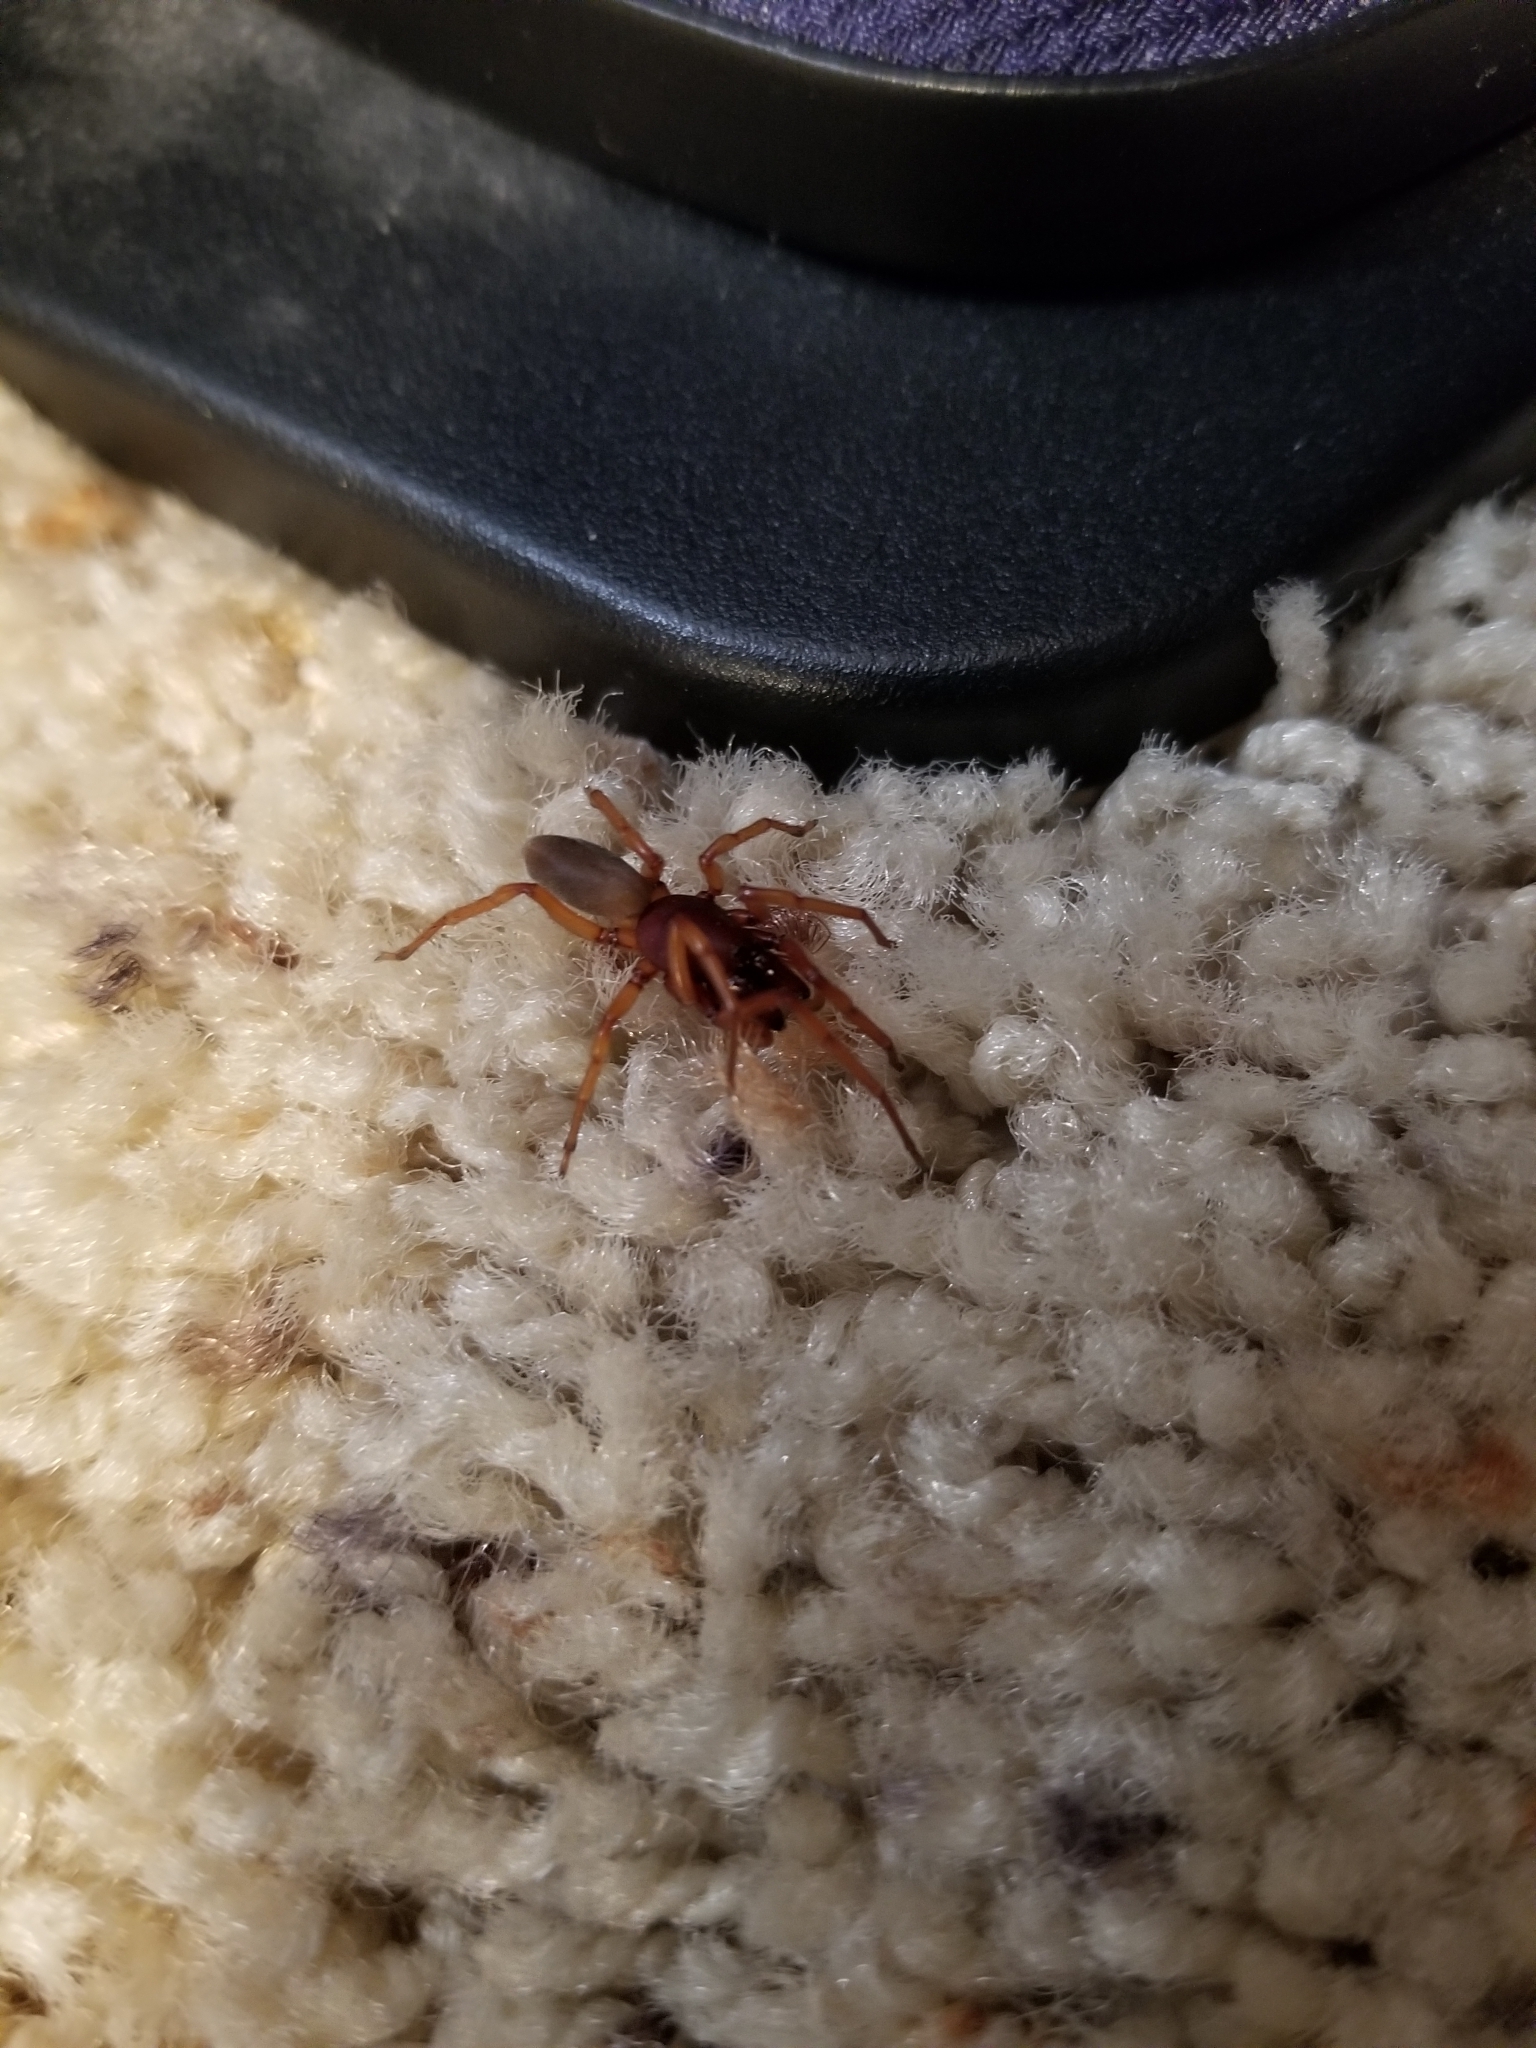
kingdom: Animalia
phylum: Arthropoda
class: Arachnida
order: Araneae
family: Dysderidae
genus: Dysdera
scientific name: Dysdera crocata
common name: Woodlouse spider
